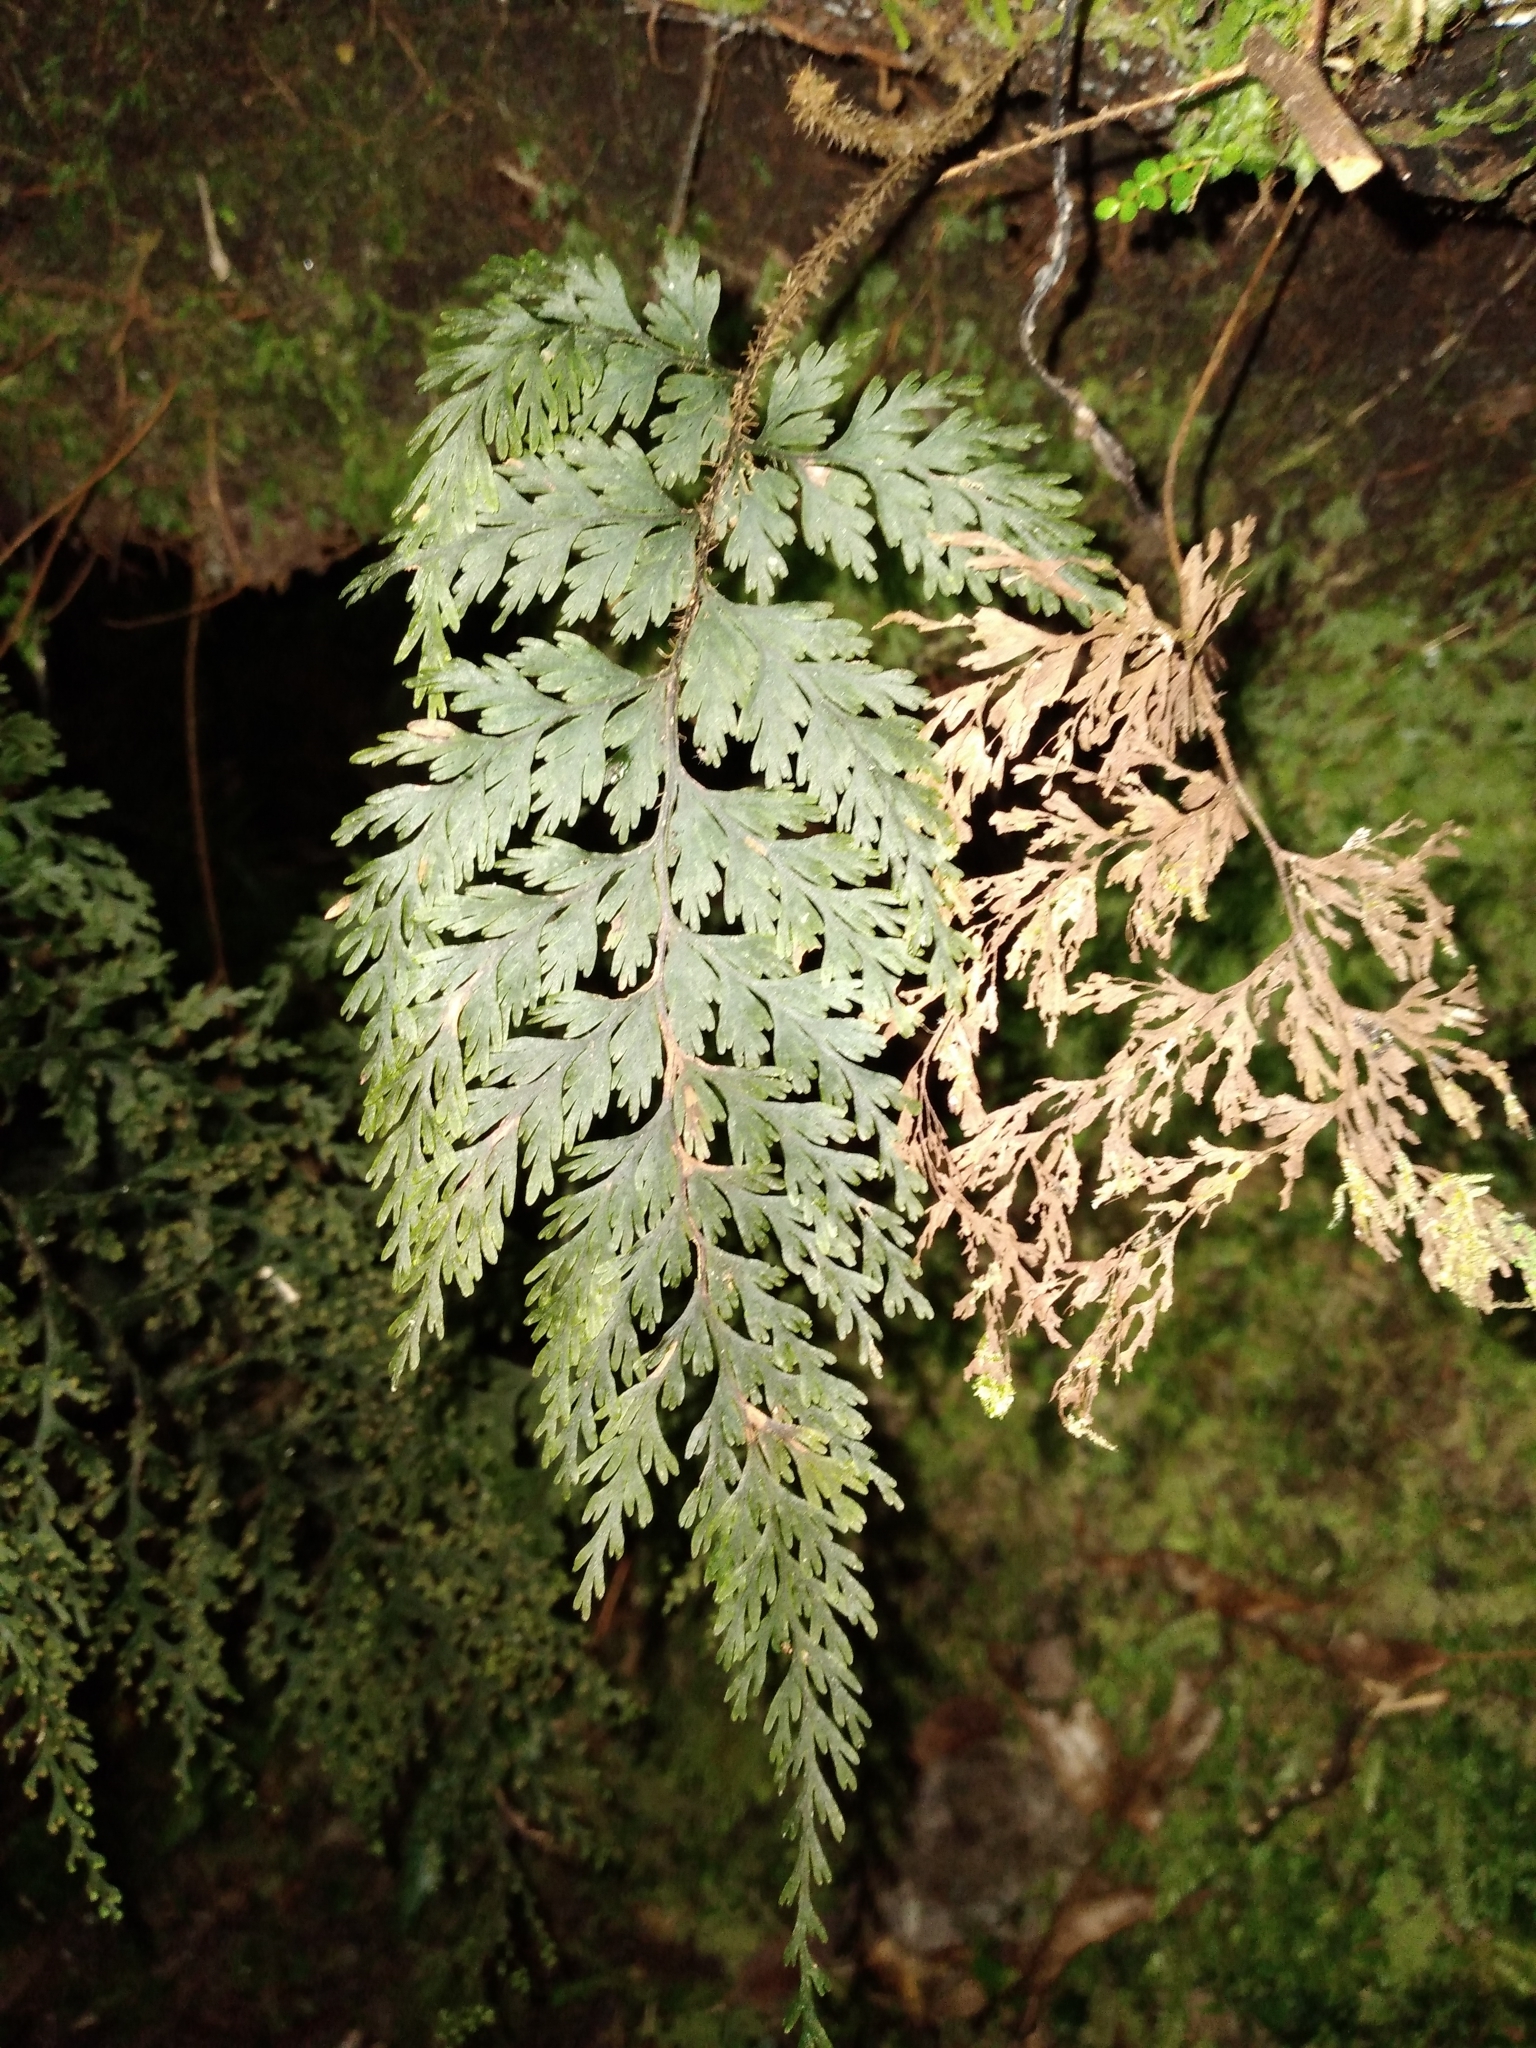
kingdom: Plantae
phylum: Tracheophyta
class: Polypodiopsida
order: Hymenophyllales
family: Hymenophyllaceae
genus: Hymenophyllum
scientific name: Hymenophyllum scabrum
